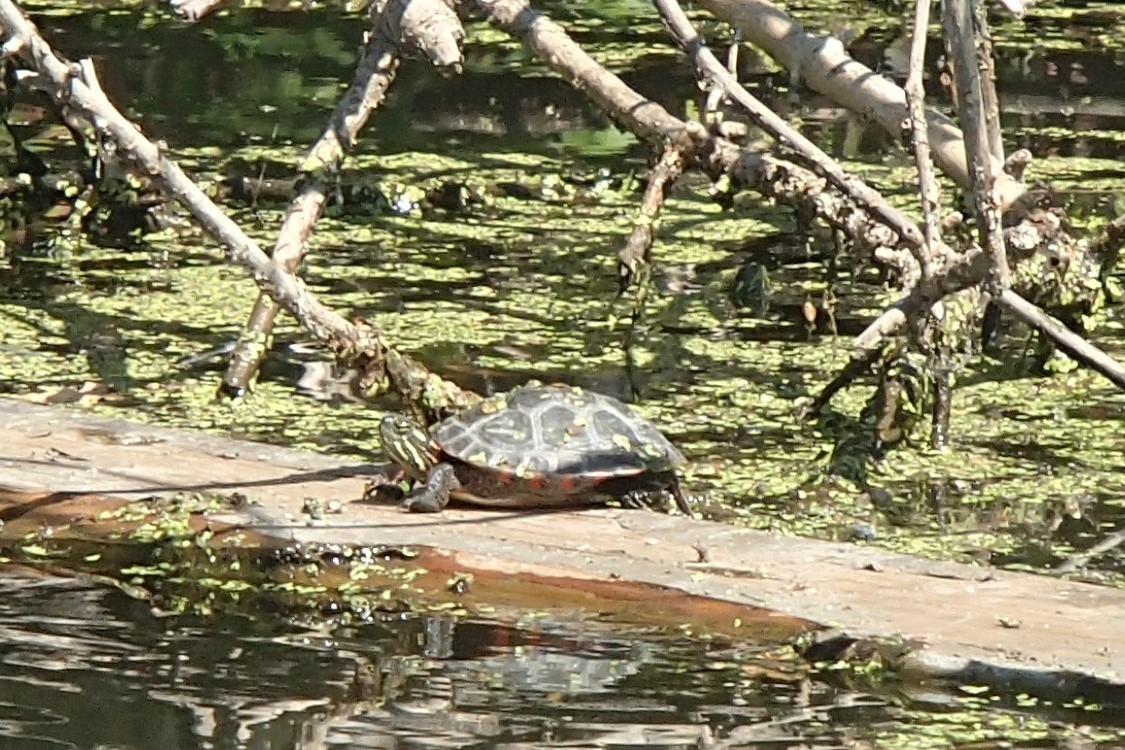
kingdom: Animalia
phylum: Chordata
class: Testudines
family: Emydidae
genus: Chrysemys
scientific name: Chrysemys picta
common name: Painted turtle
